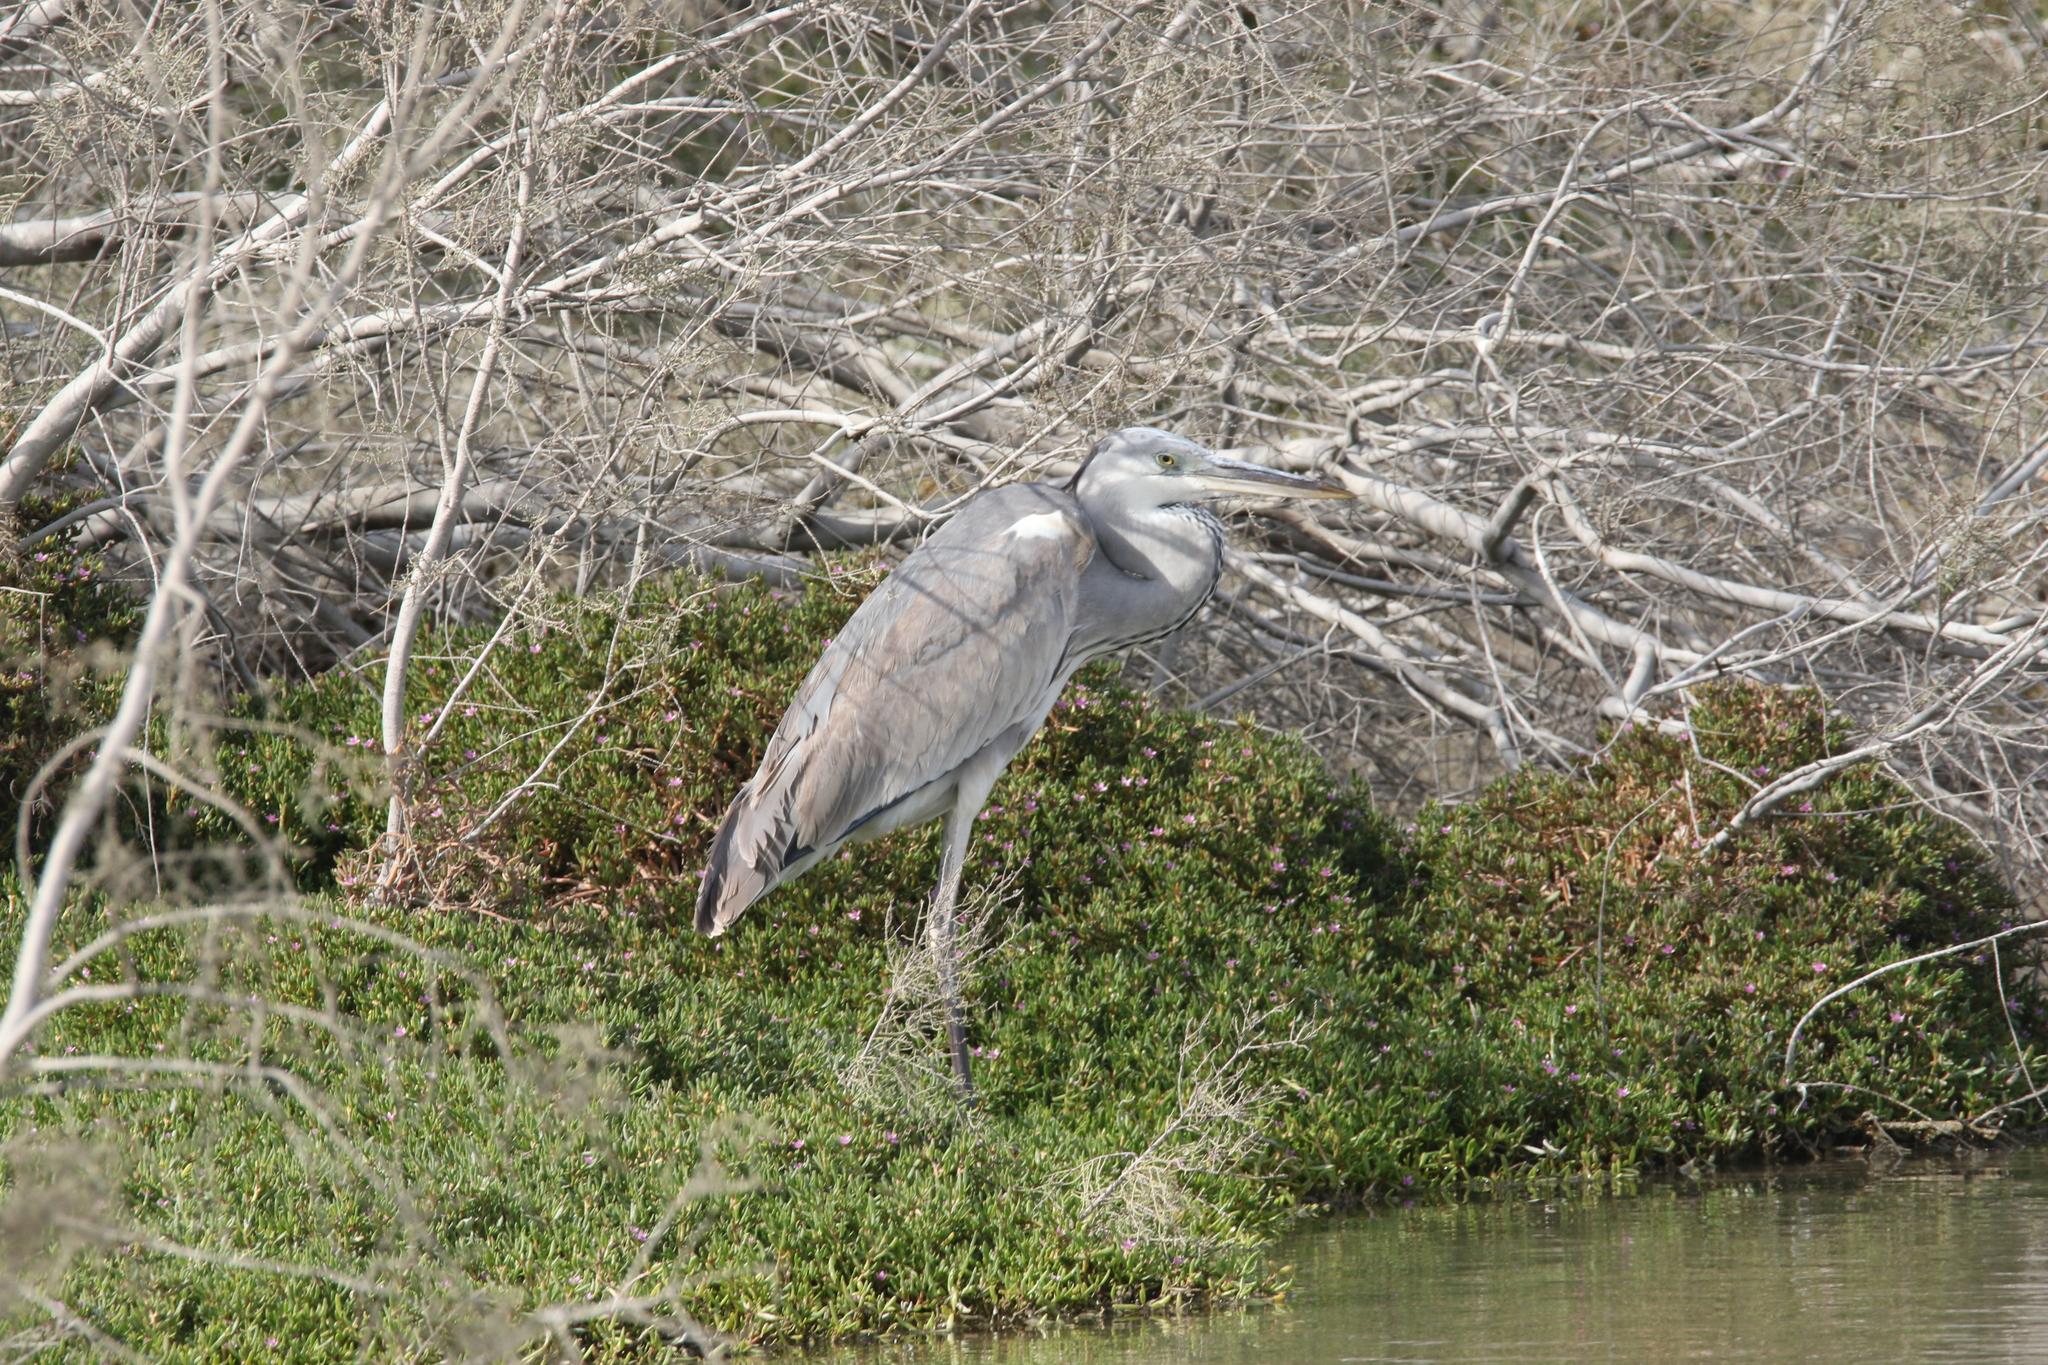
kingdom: Animalia
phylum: Chordata
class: Aves
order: Pelecaniformes
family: Ardeidae
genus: Ardea
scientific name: Ardea cinerea
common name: Grey heron
